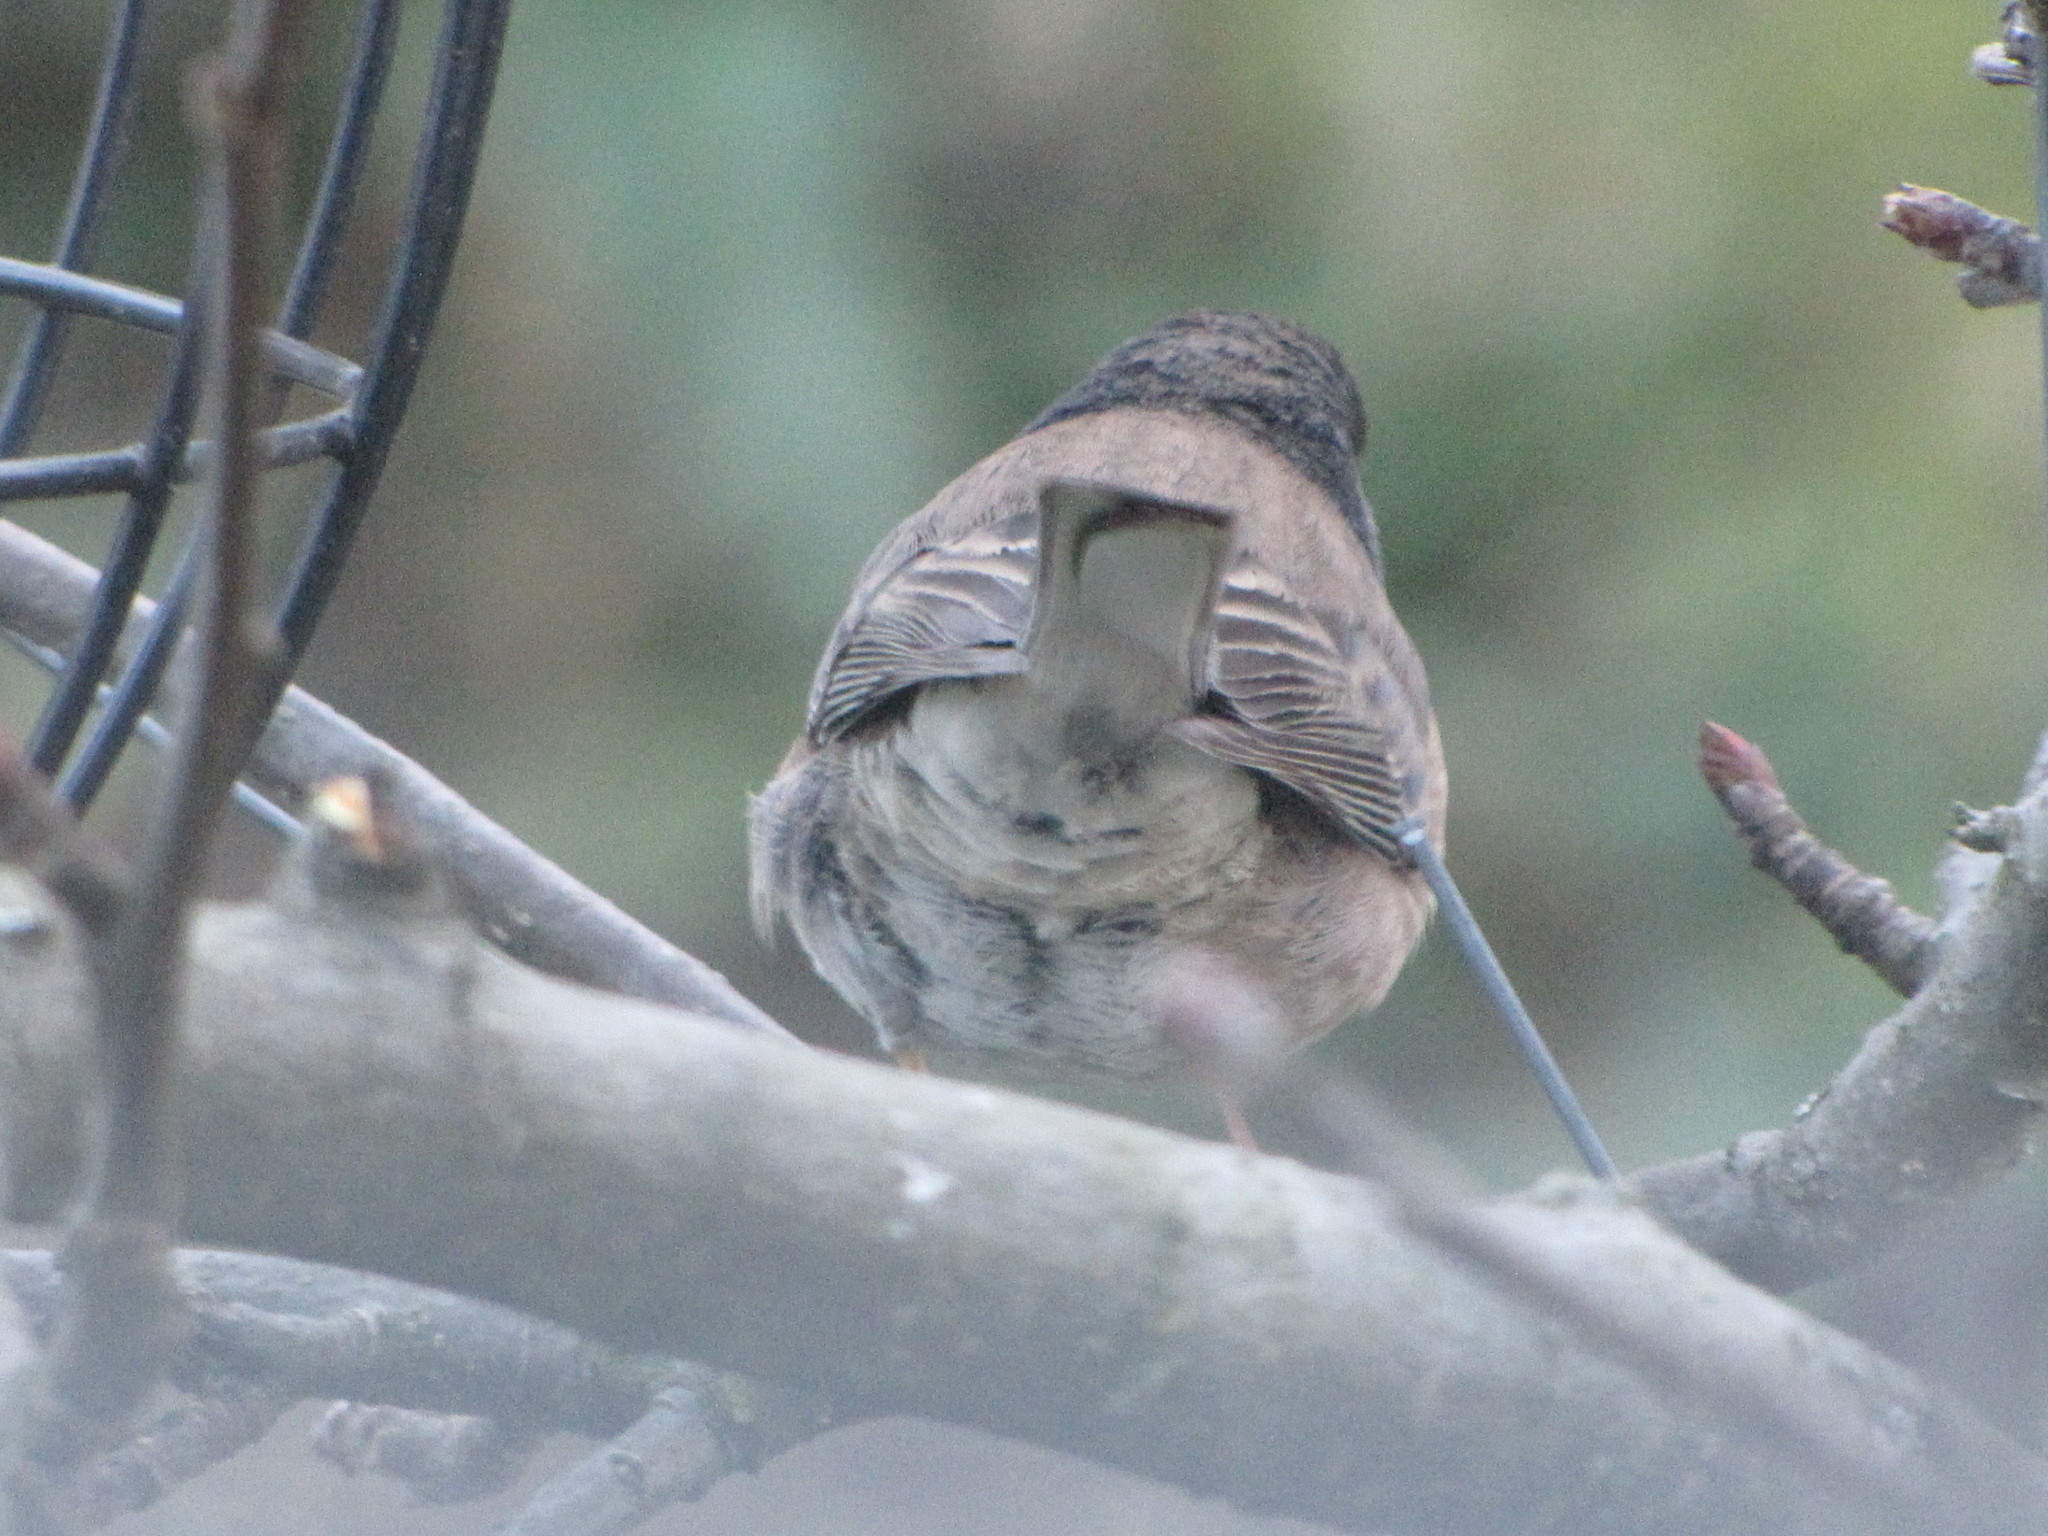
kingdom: Animalia
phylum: Chordata
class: Aves
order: Passeriformes
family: Passerellidae
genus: Junco
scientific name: Junco hyemalis
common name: Dark-eyed junco
